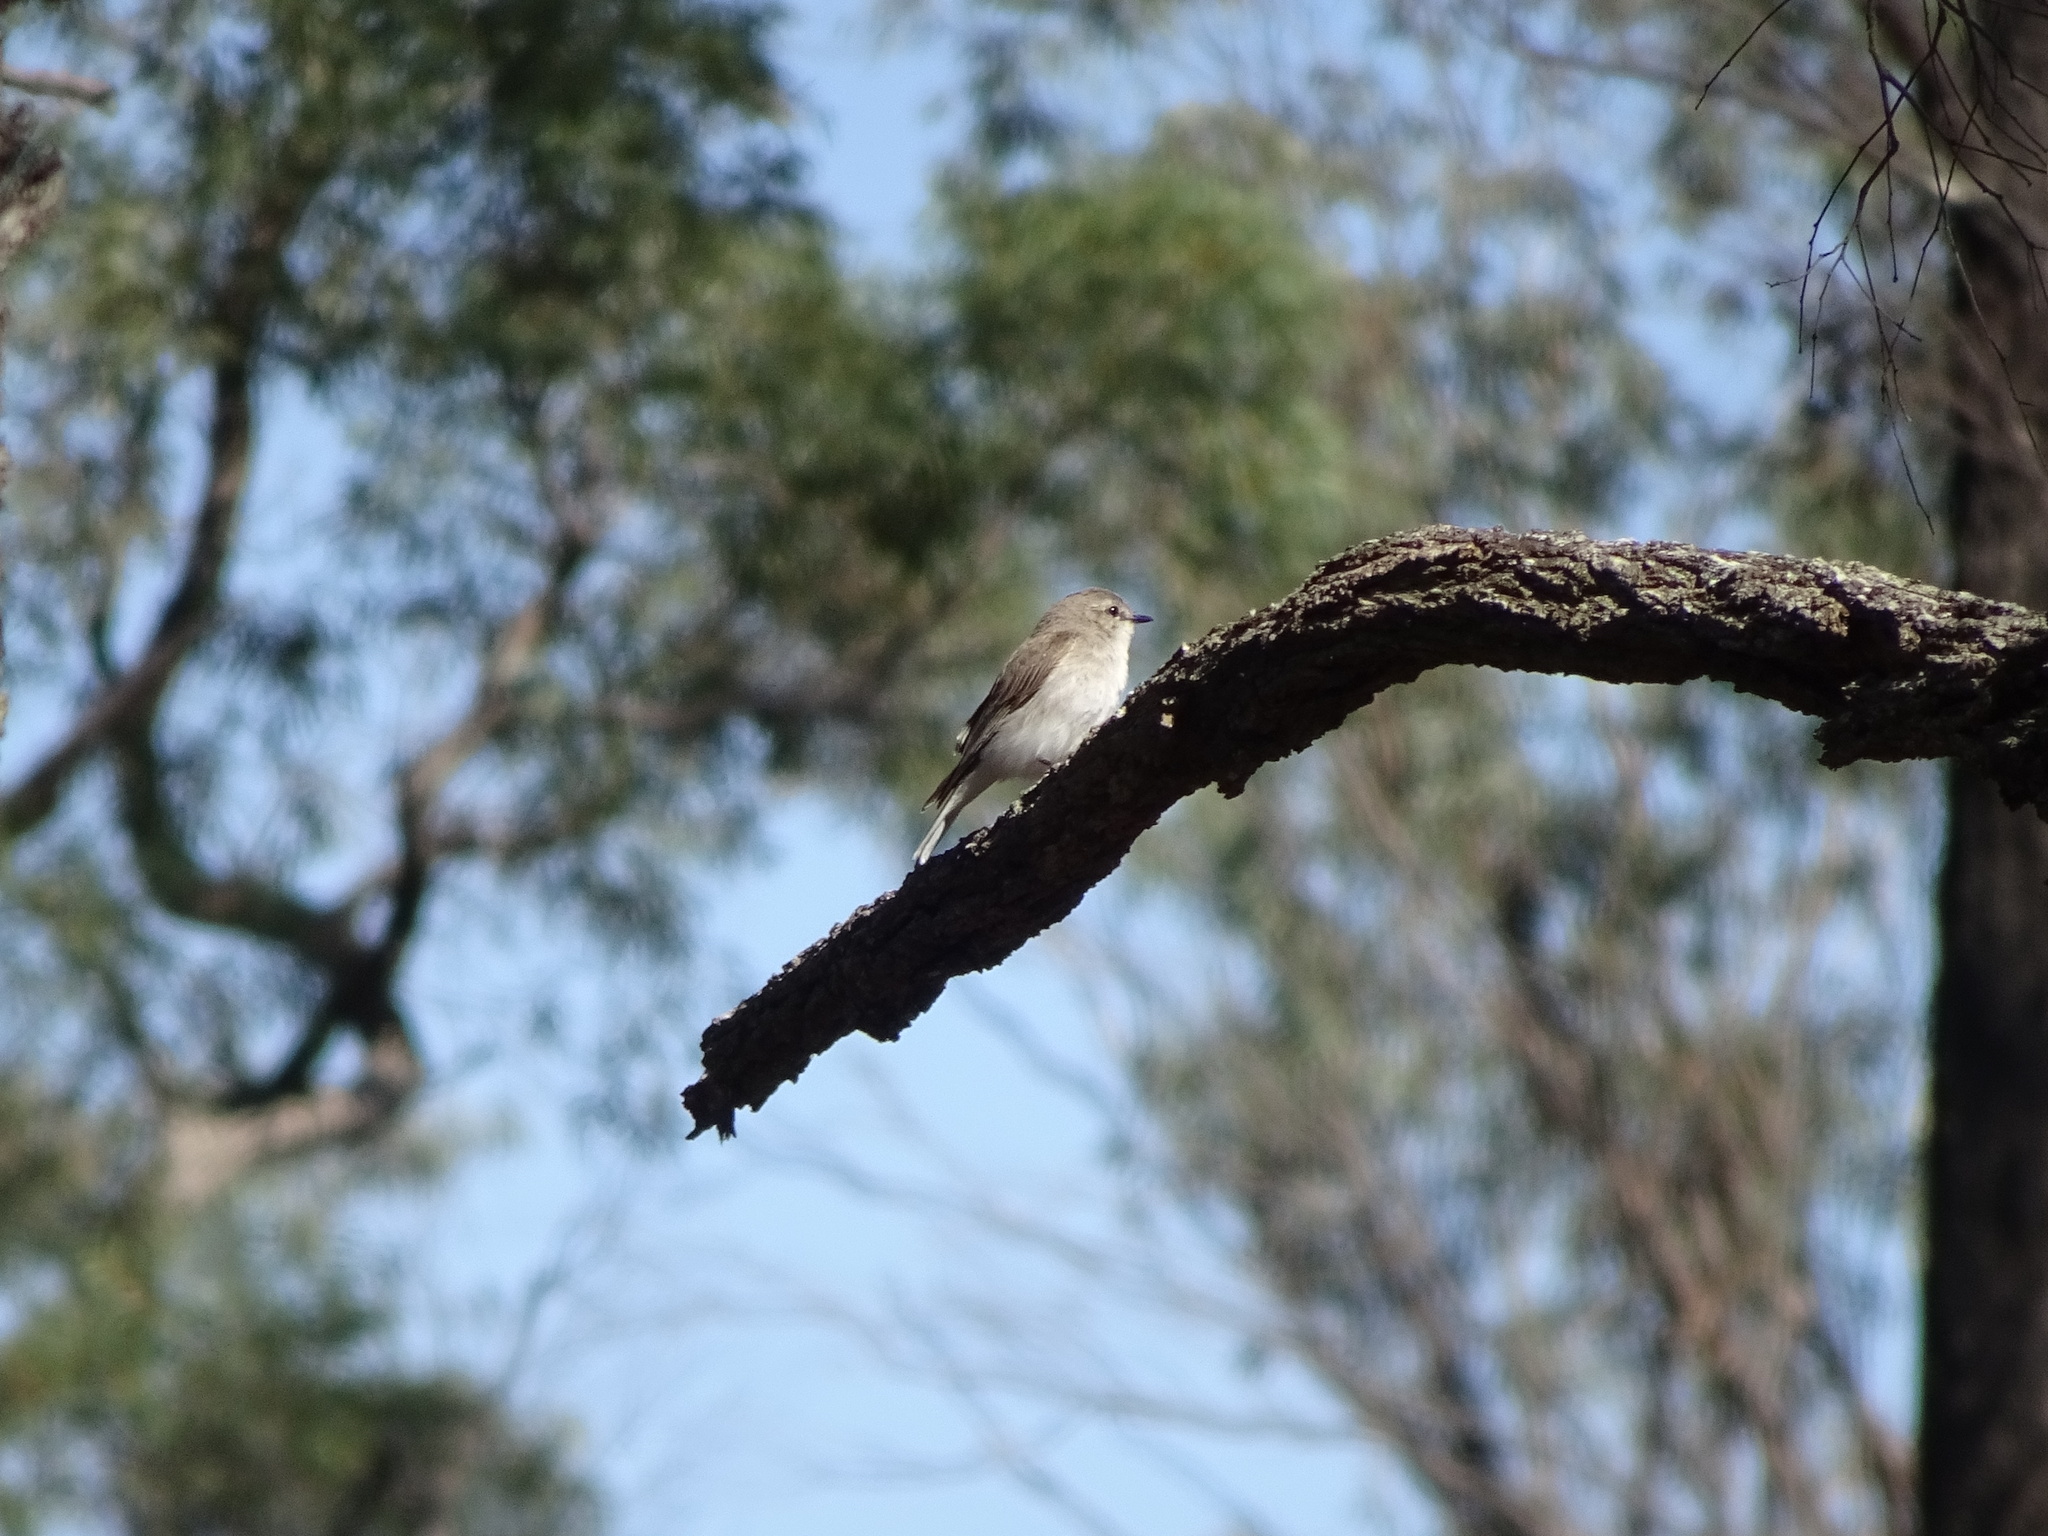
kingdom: Animalia
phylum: Chordata
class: Aves
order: Passeriformes
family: Petroicidae
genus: Microeca
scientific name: Microeca fascinans
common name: Jacky winter
